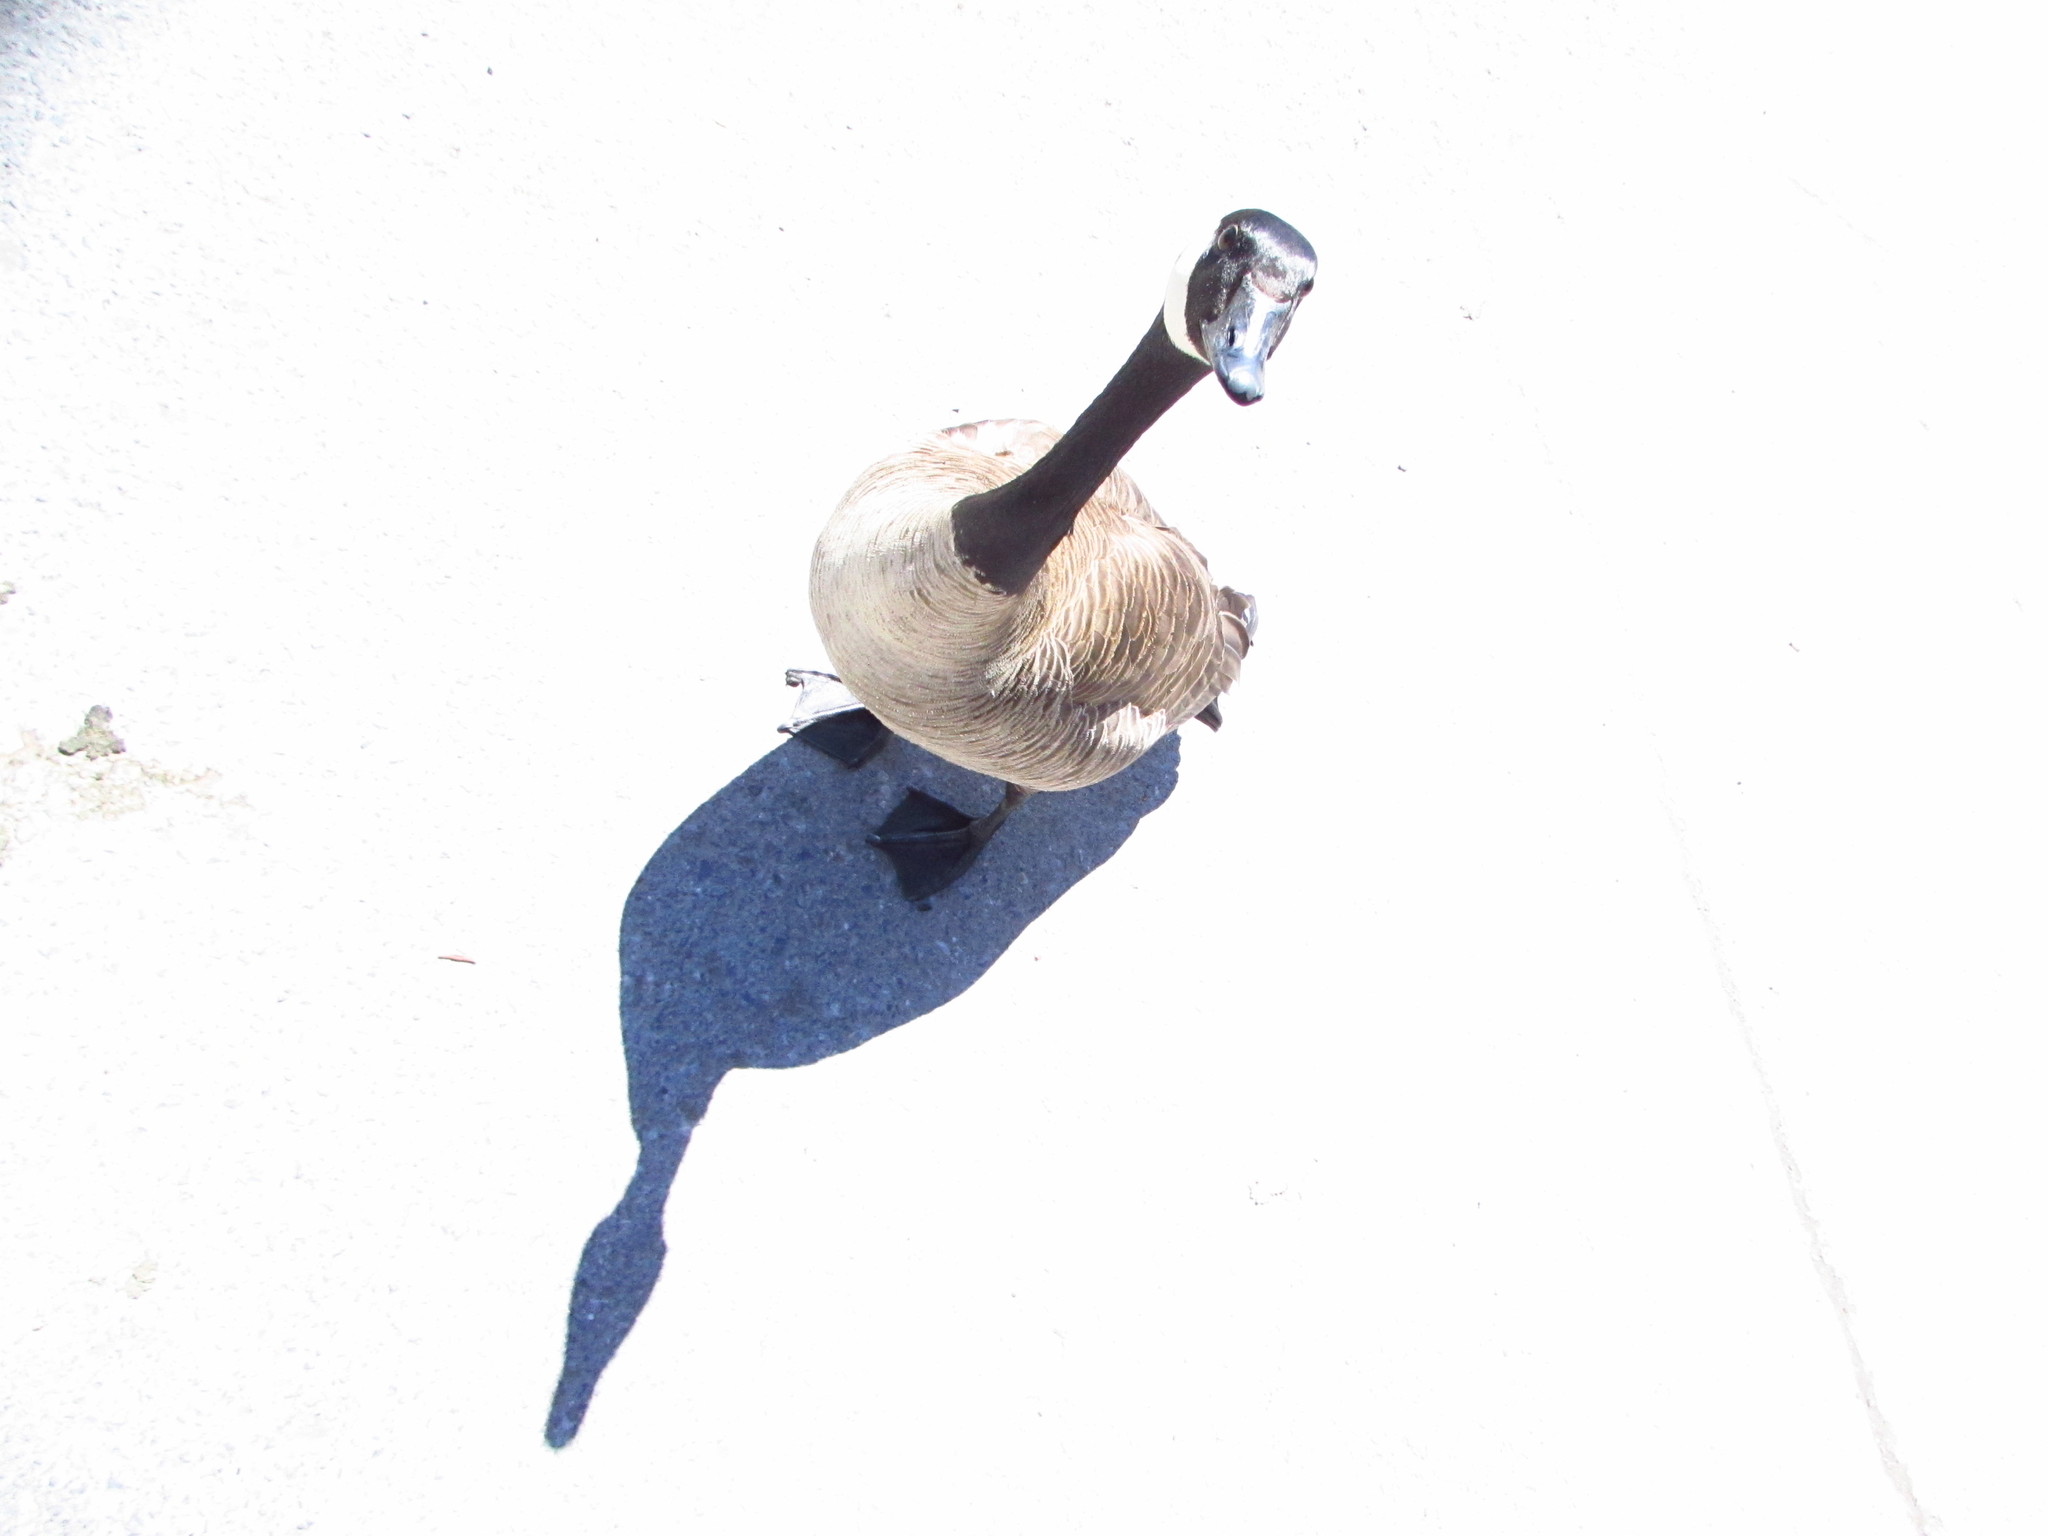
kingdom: Animalia
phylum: Chordata
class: Aves
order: Anseriformes
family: Anatidae
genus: Branta
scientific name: Branta canadensis
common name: Canada goose
